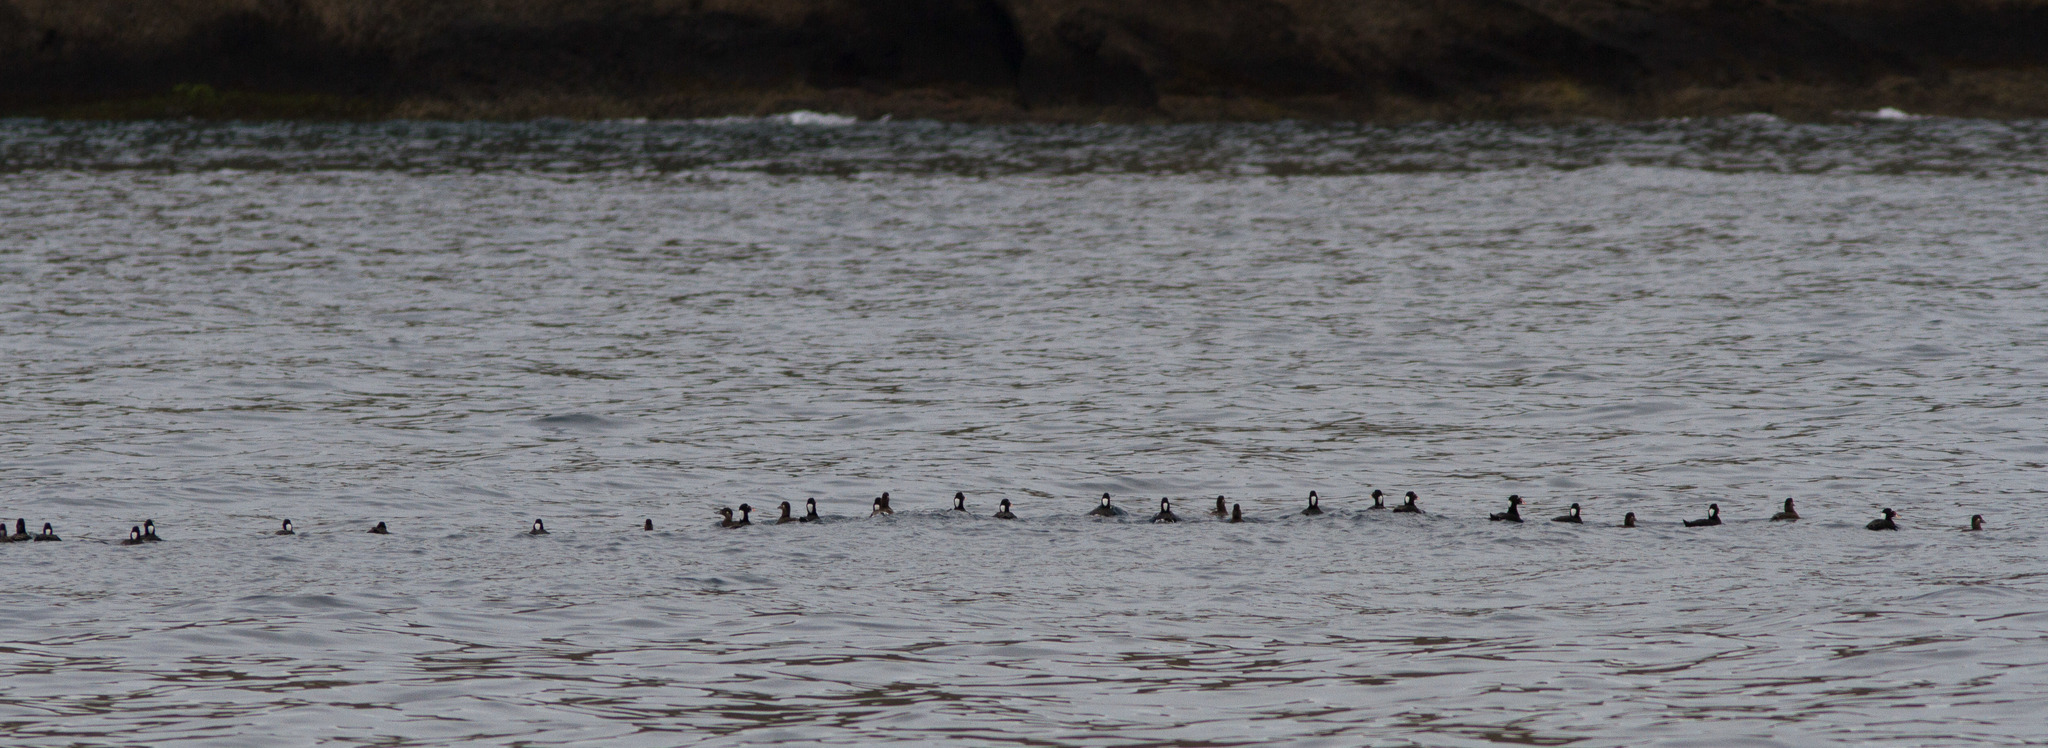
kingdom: Animalia
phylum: Chordata
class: Aves
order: Anseriformes
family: Anatidae
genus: Melanitta
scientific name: Melanitta perspicillata
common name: Surf scoter
